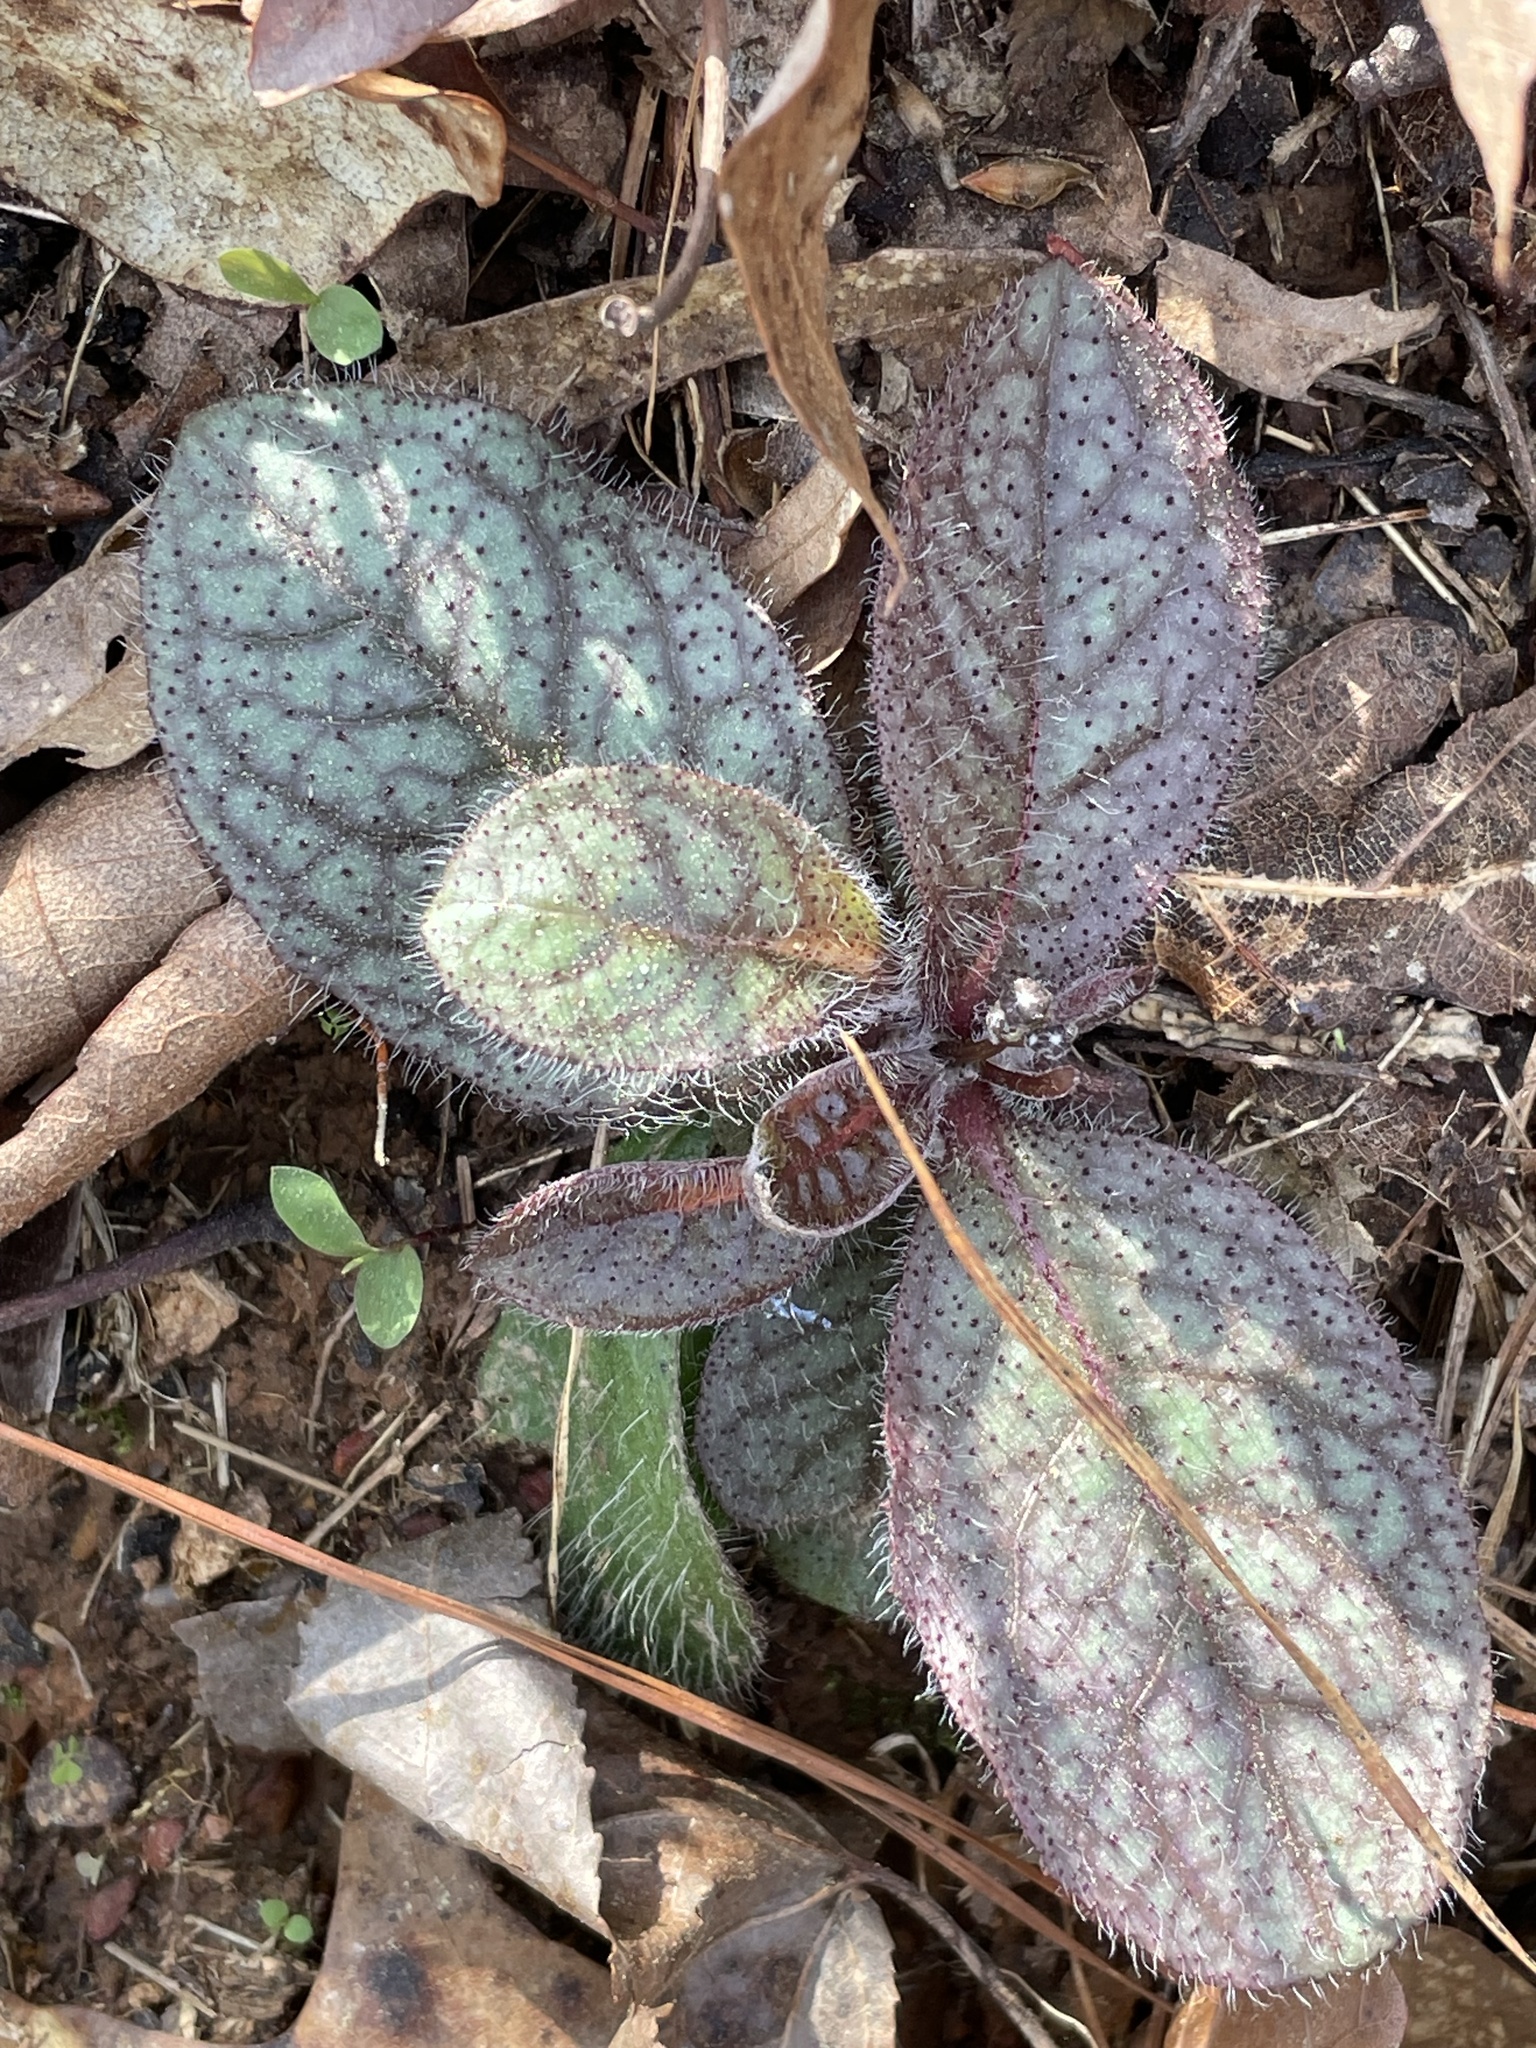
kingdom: Plantae
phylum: Tracheophyta
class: Magnoliopsida
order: Asterales
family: Asteraceae
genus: Hieracium
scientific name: Hieracium venosum
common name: Rattlesnake hawkweed
